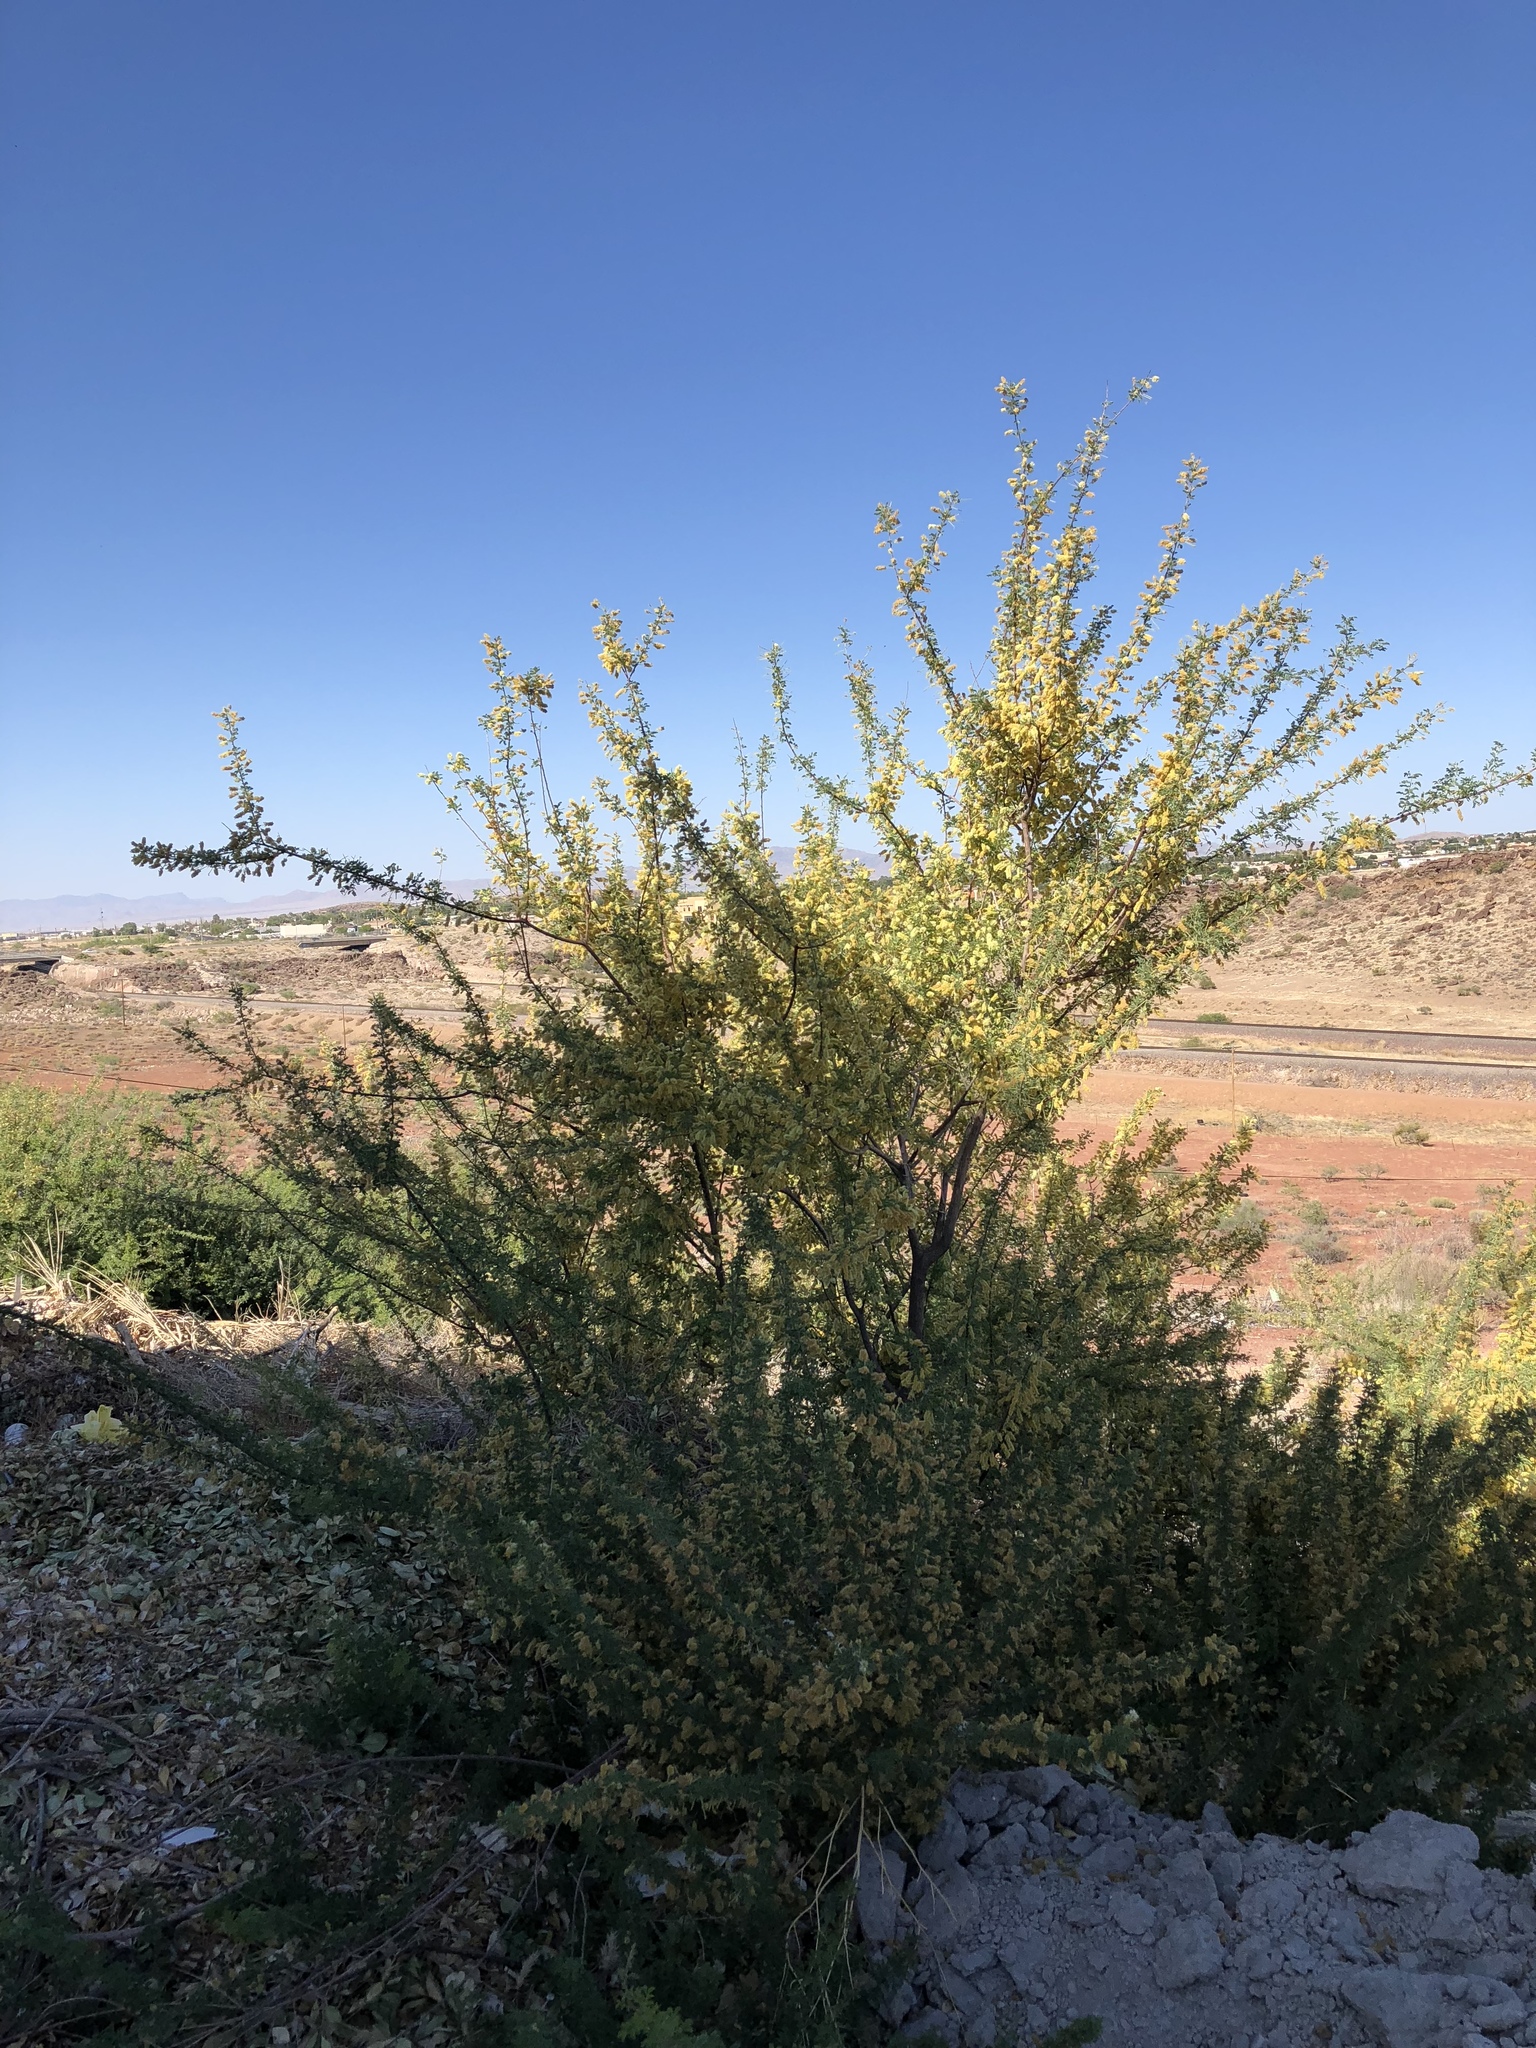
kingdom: Plantae
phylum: Tracheophyta
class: Magnoliopsida
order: Fabales
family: Fabaceae
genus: Senegalia
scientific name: Senegalia greggii
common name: Texas-mimosa
